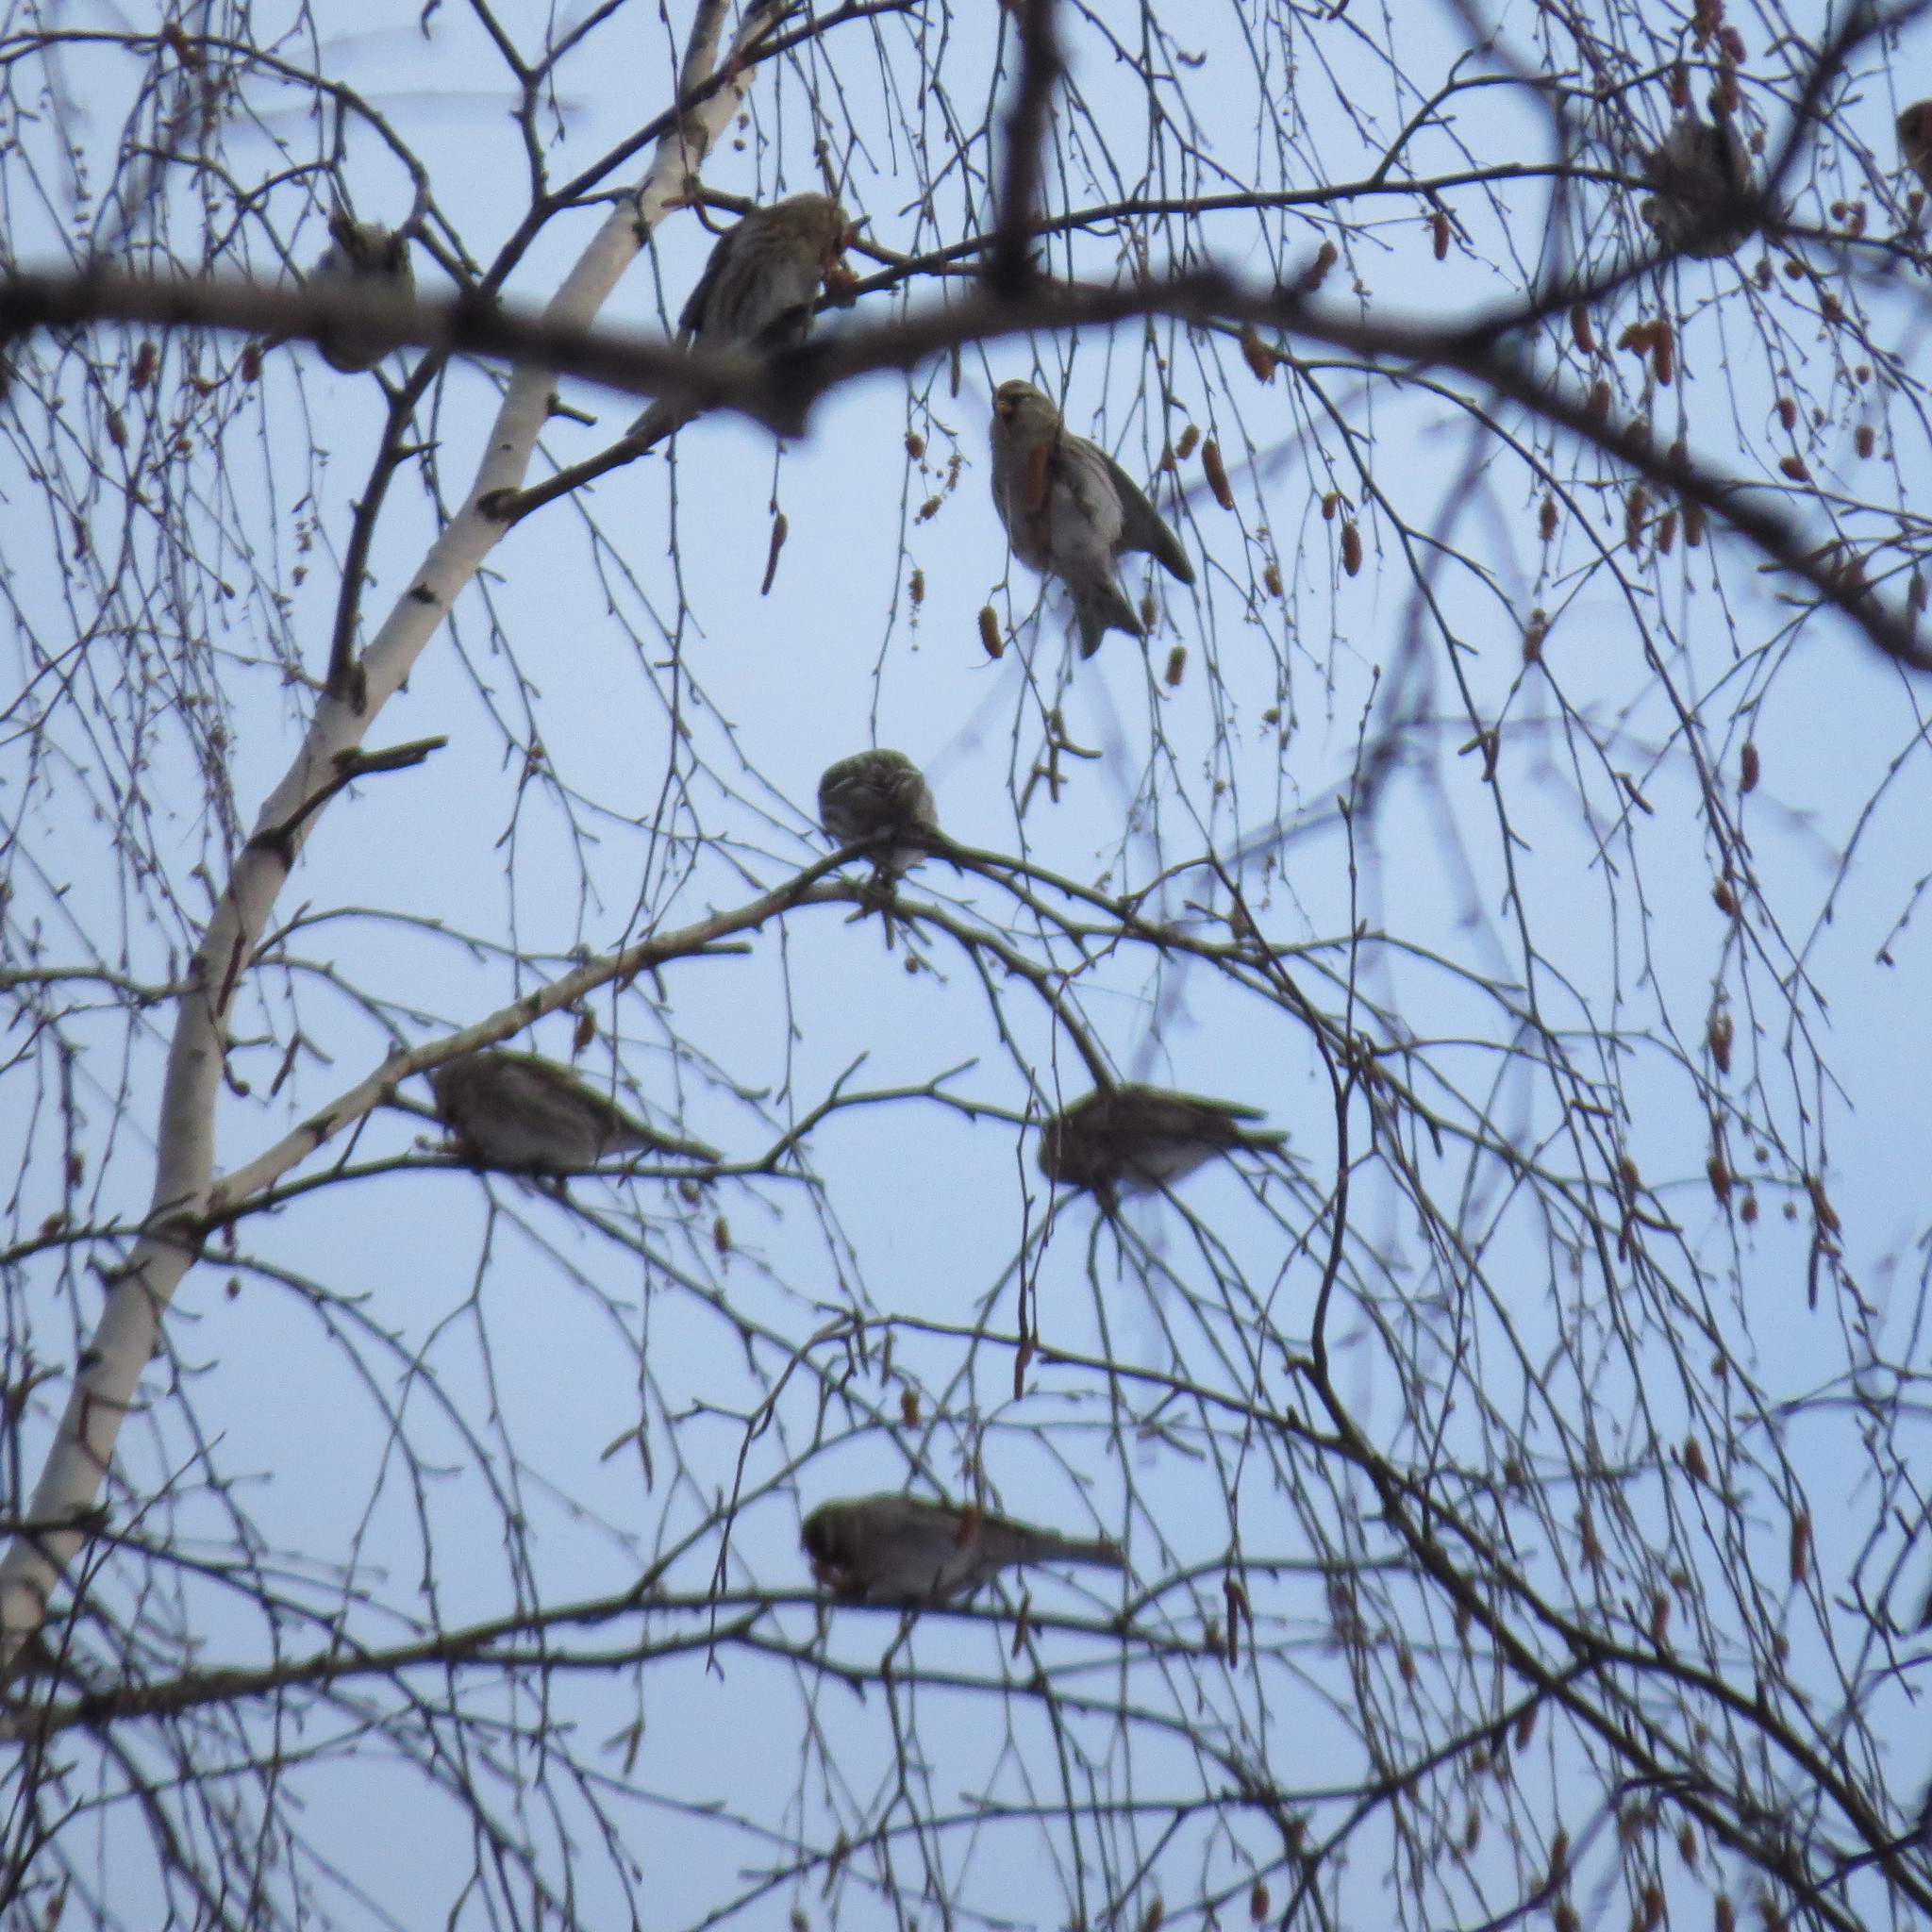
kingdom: Animalia
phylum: Chordata
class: Aves
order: Passeriformes
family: Fringillidae
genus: Acanthis
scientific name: Acanthis flammea
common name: Common redpoll
